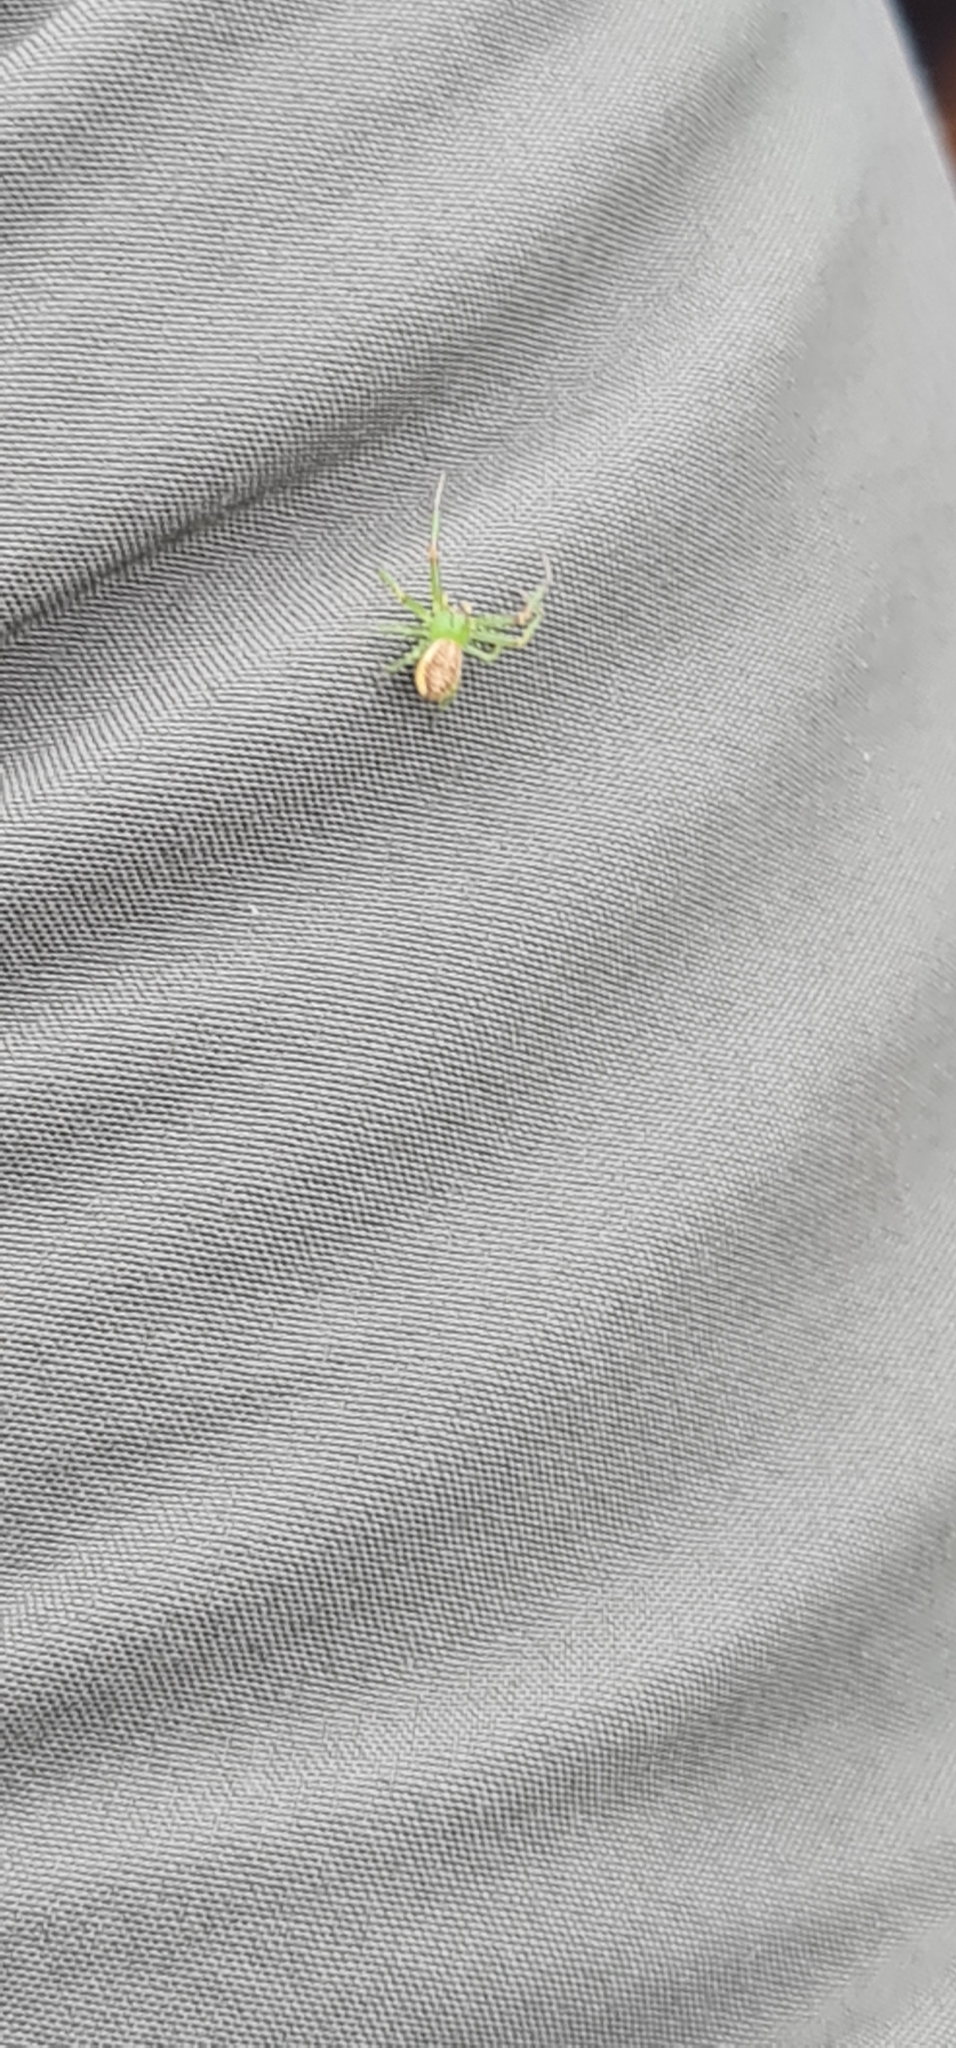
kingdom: Animalia
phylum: Arthropoda
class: Arachnida
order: Araneae
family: Thomisidae
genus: Diaea
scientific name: Diaea dorsata
